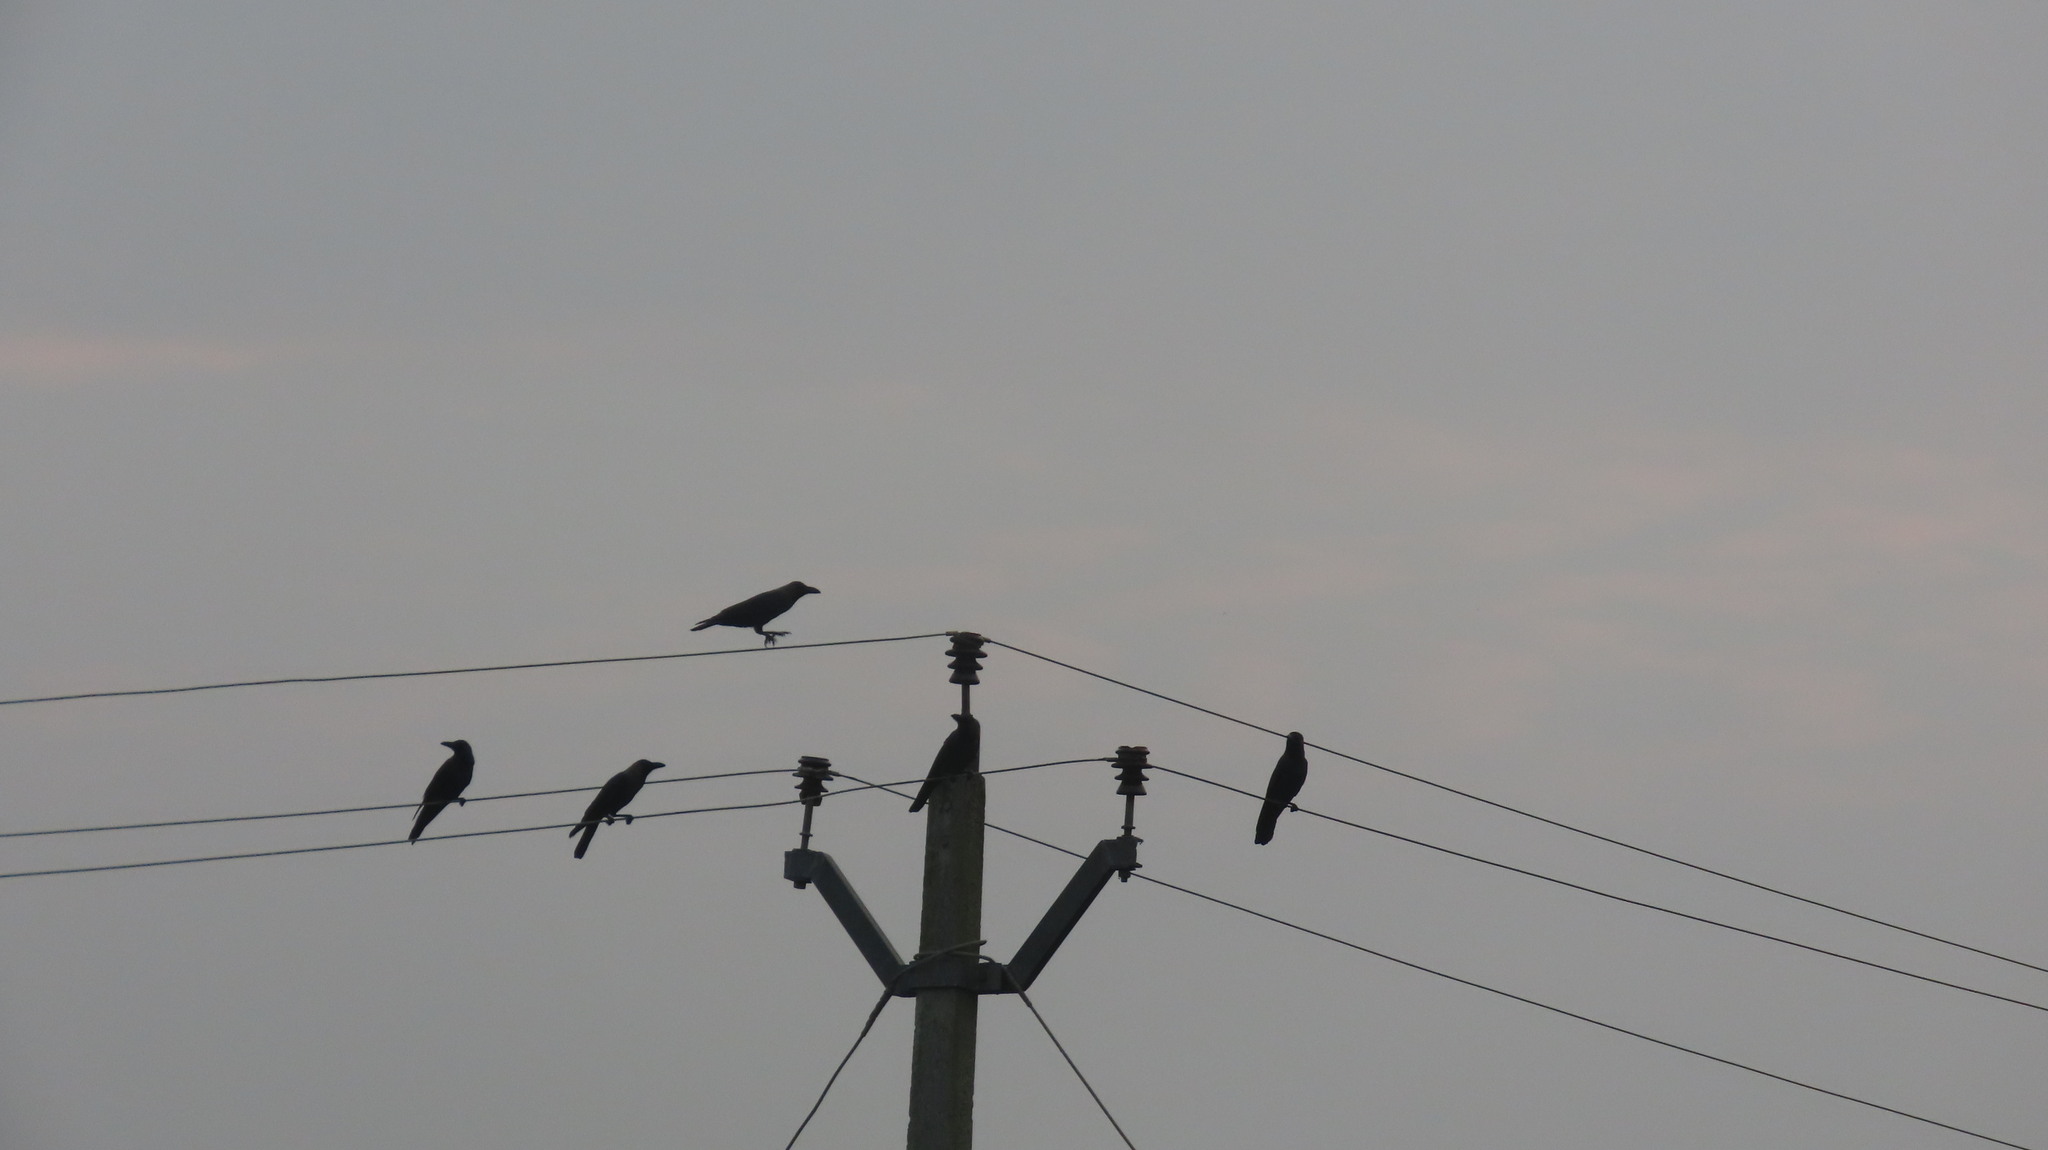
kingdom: Animalia
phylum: Chordata
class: Aves
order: Passeriformes
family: Corvidae
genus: Corvus
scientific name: Corvus splendens
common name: House crow
